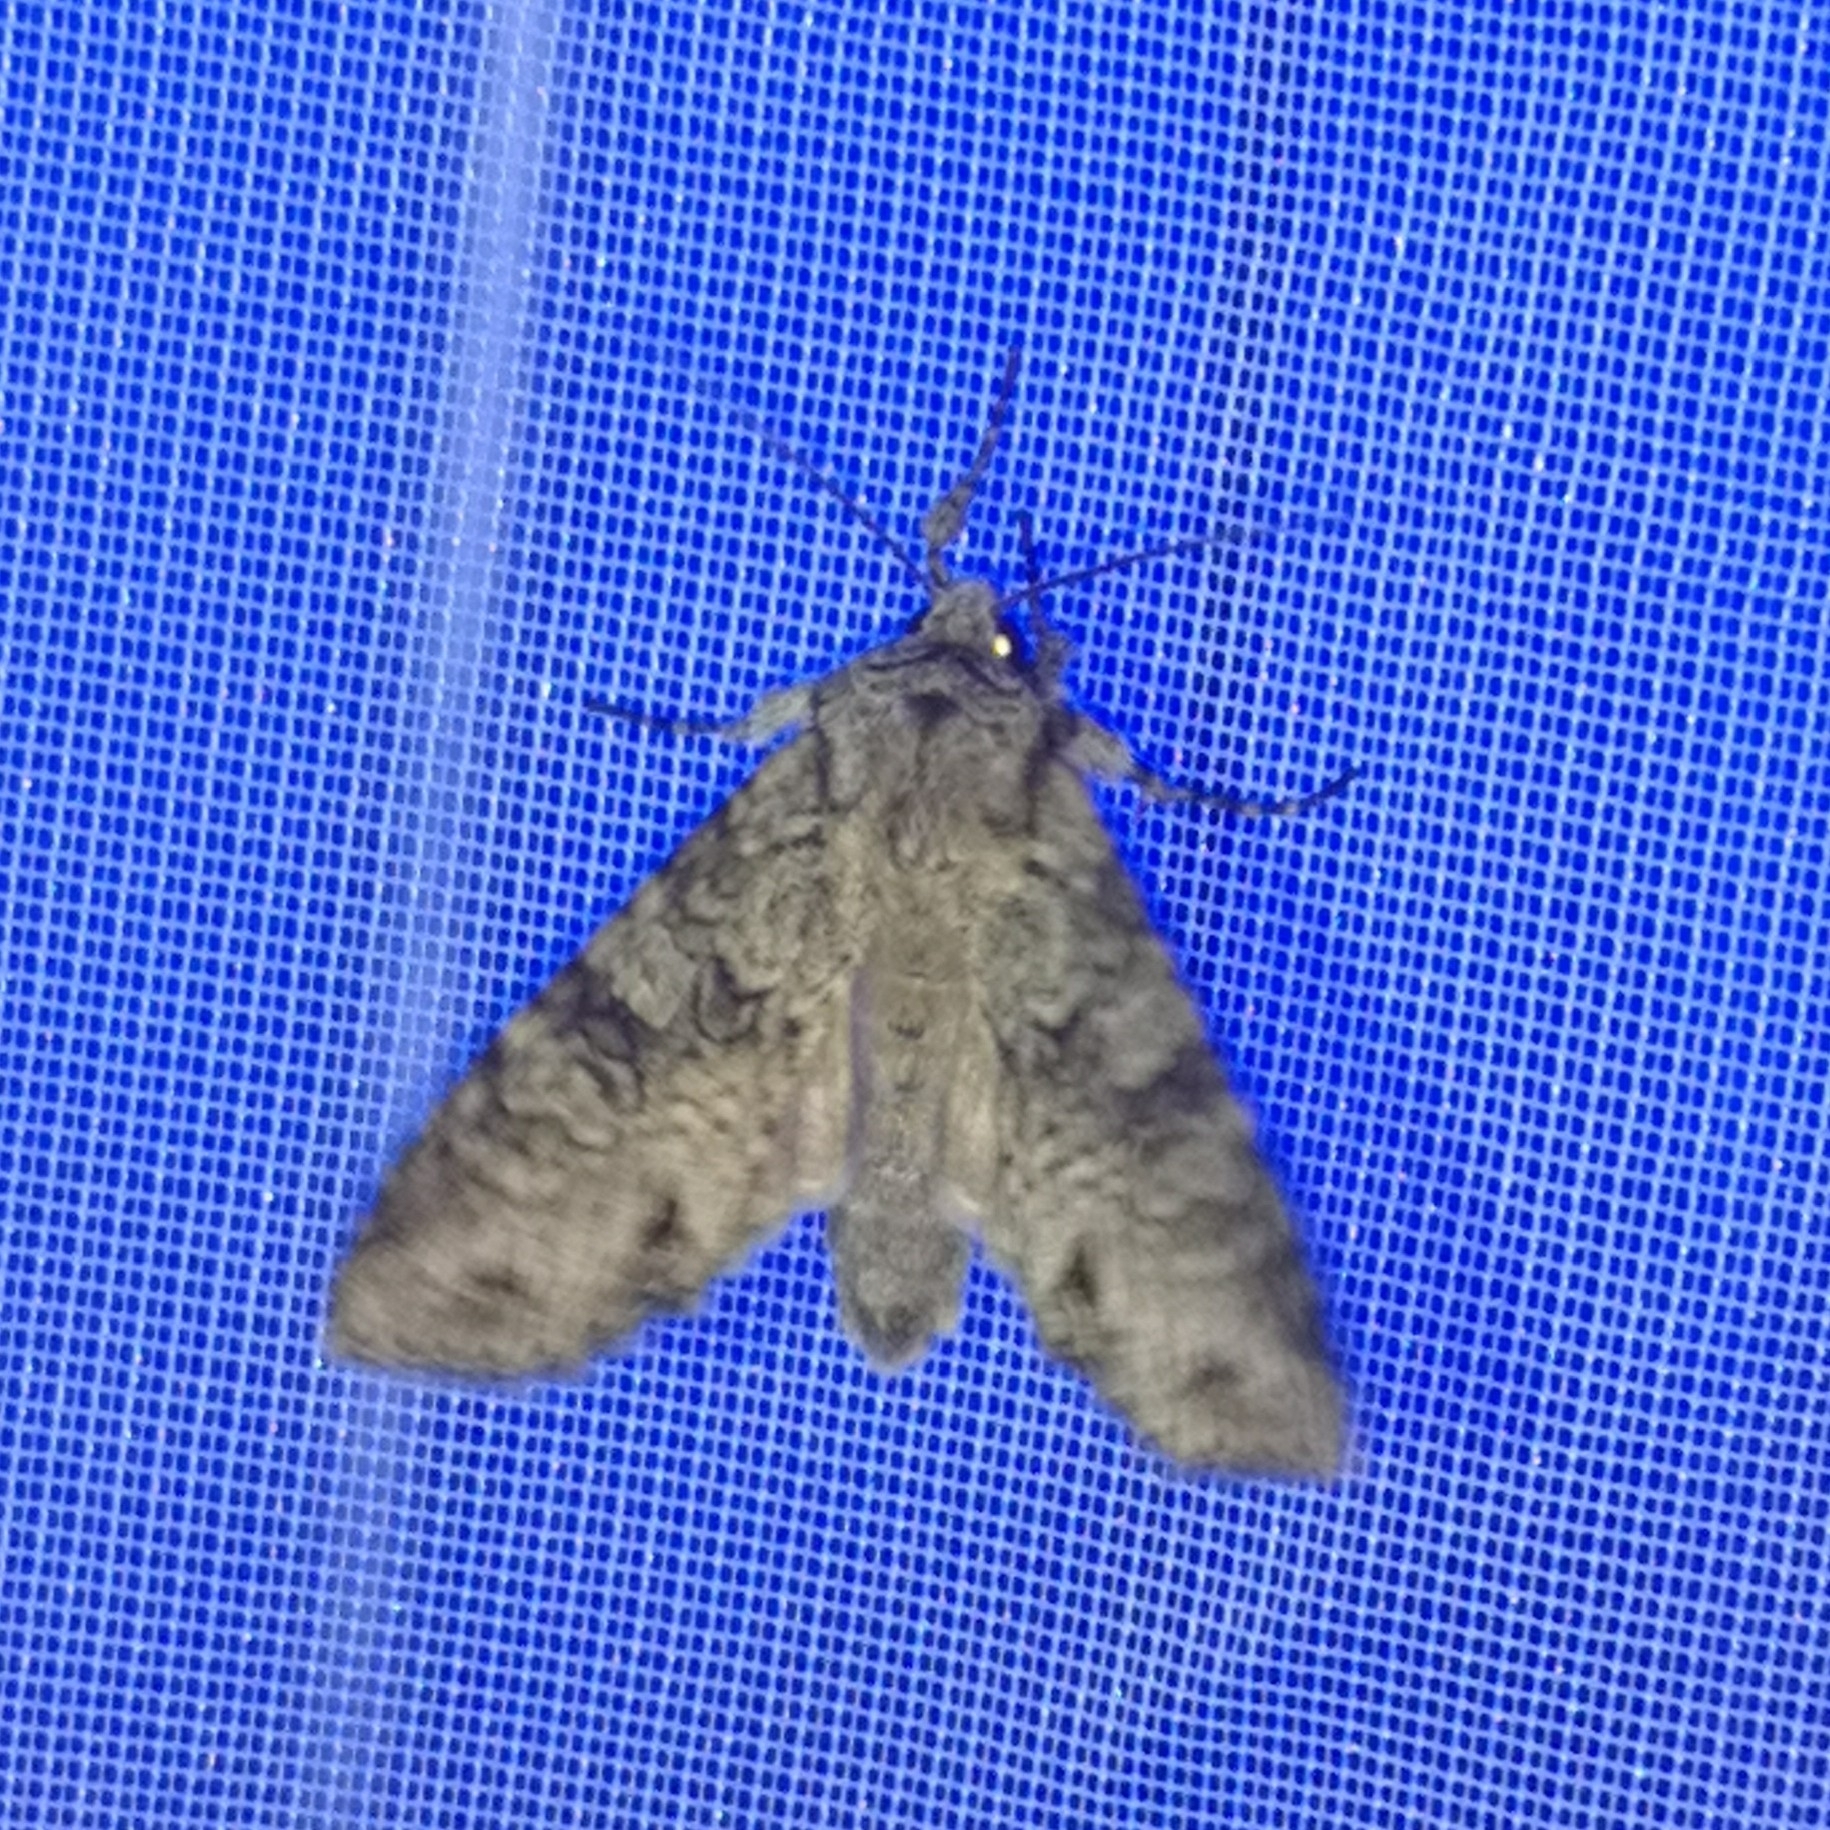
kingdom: Animalia
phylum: Arthropoda
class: Insecta
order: Lepidoptera
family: Noctuidae
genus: Polia
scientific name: Polia nebulosa
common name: Grey arches
